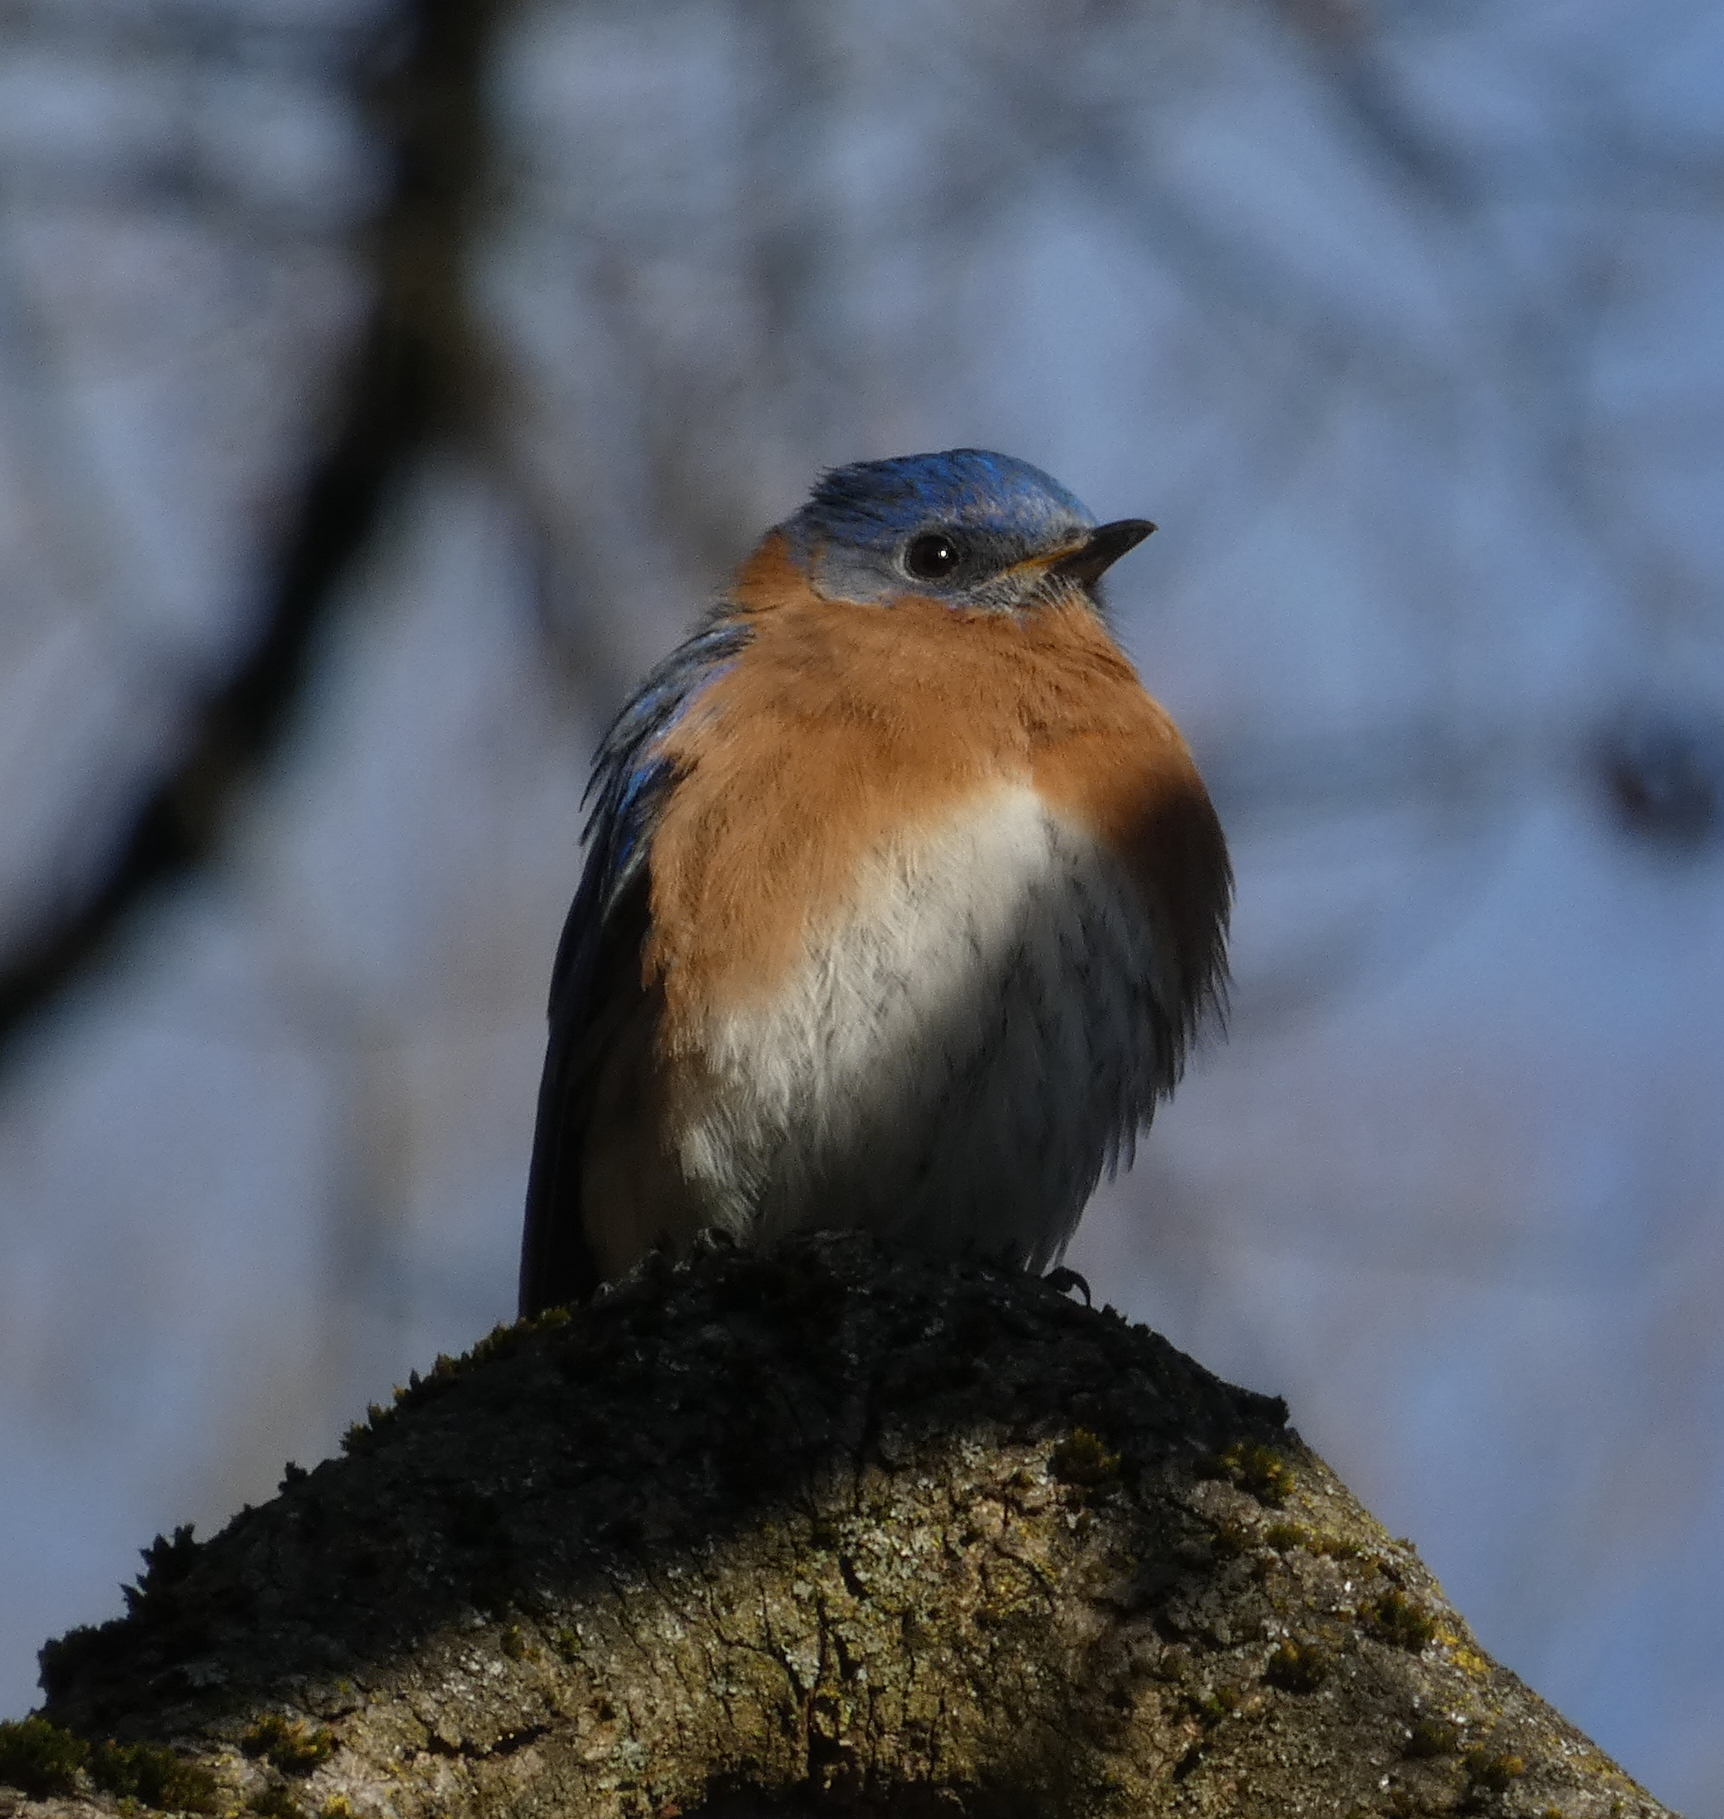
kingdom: Animalia
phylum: Chordata
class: Aves
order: Passeriformes
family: Turdidae
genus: Sialia
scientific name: Sialia sialis
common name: Eastern bluebird
